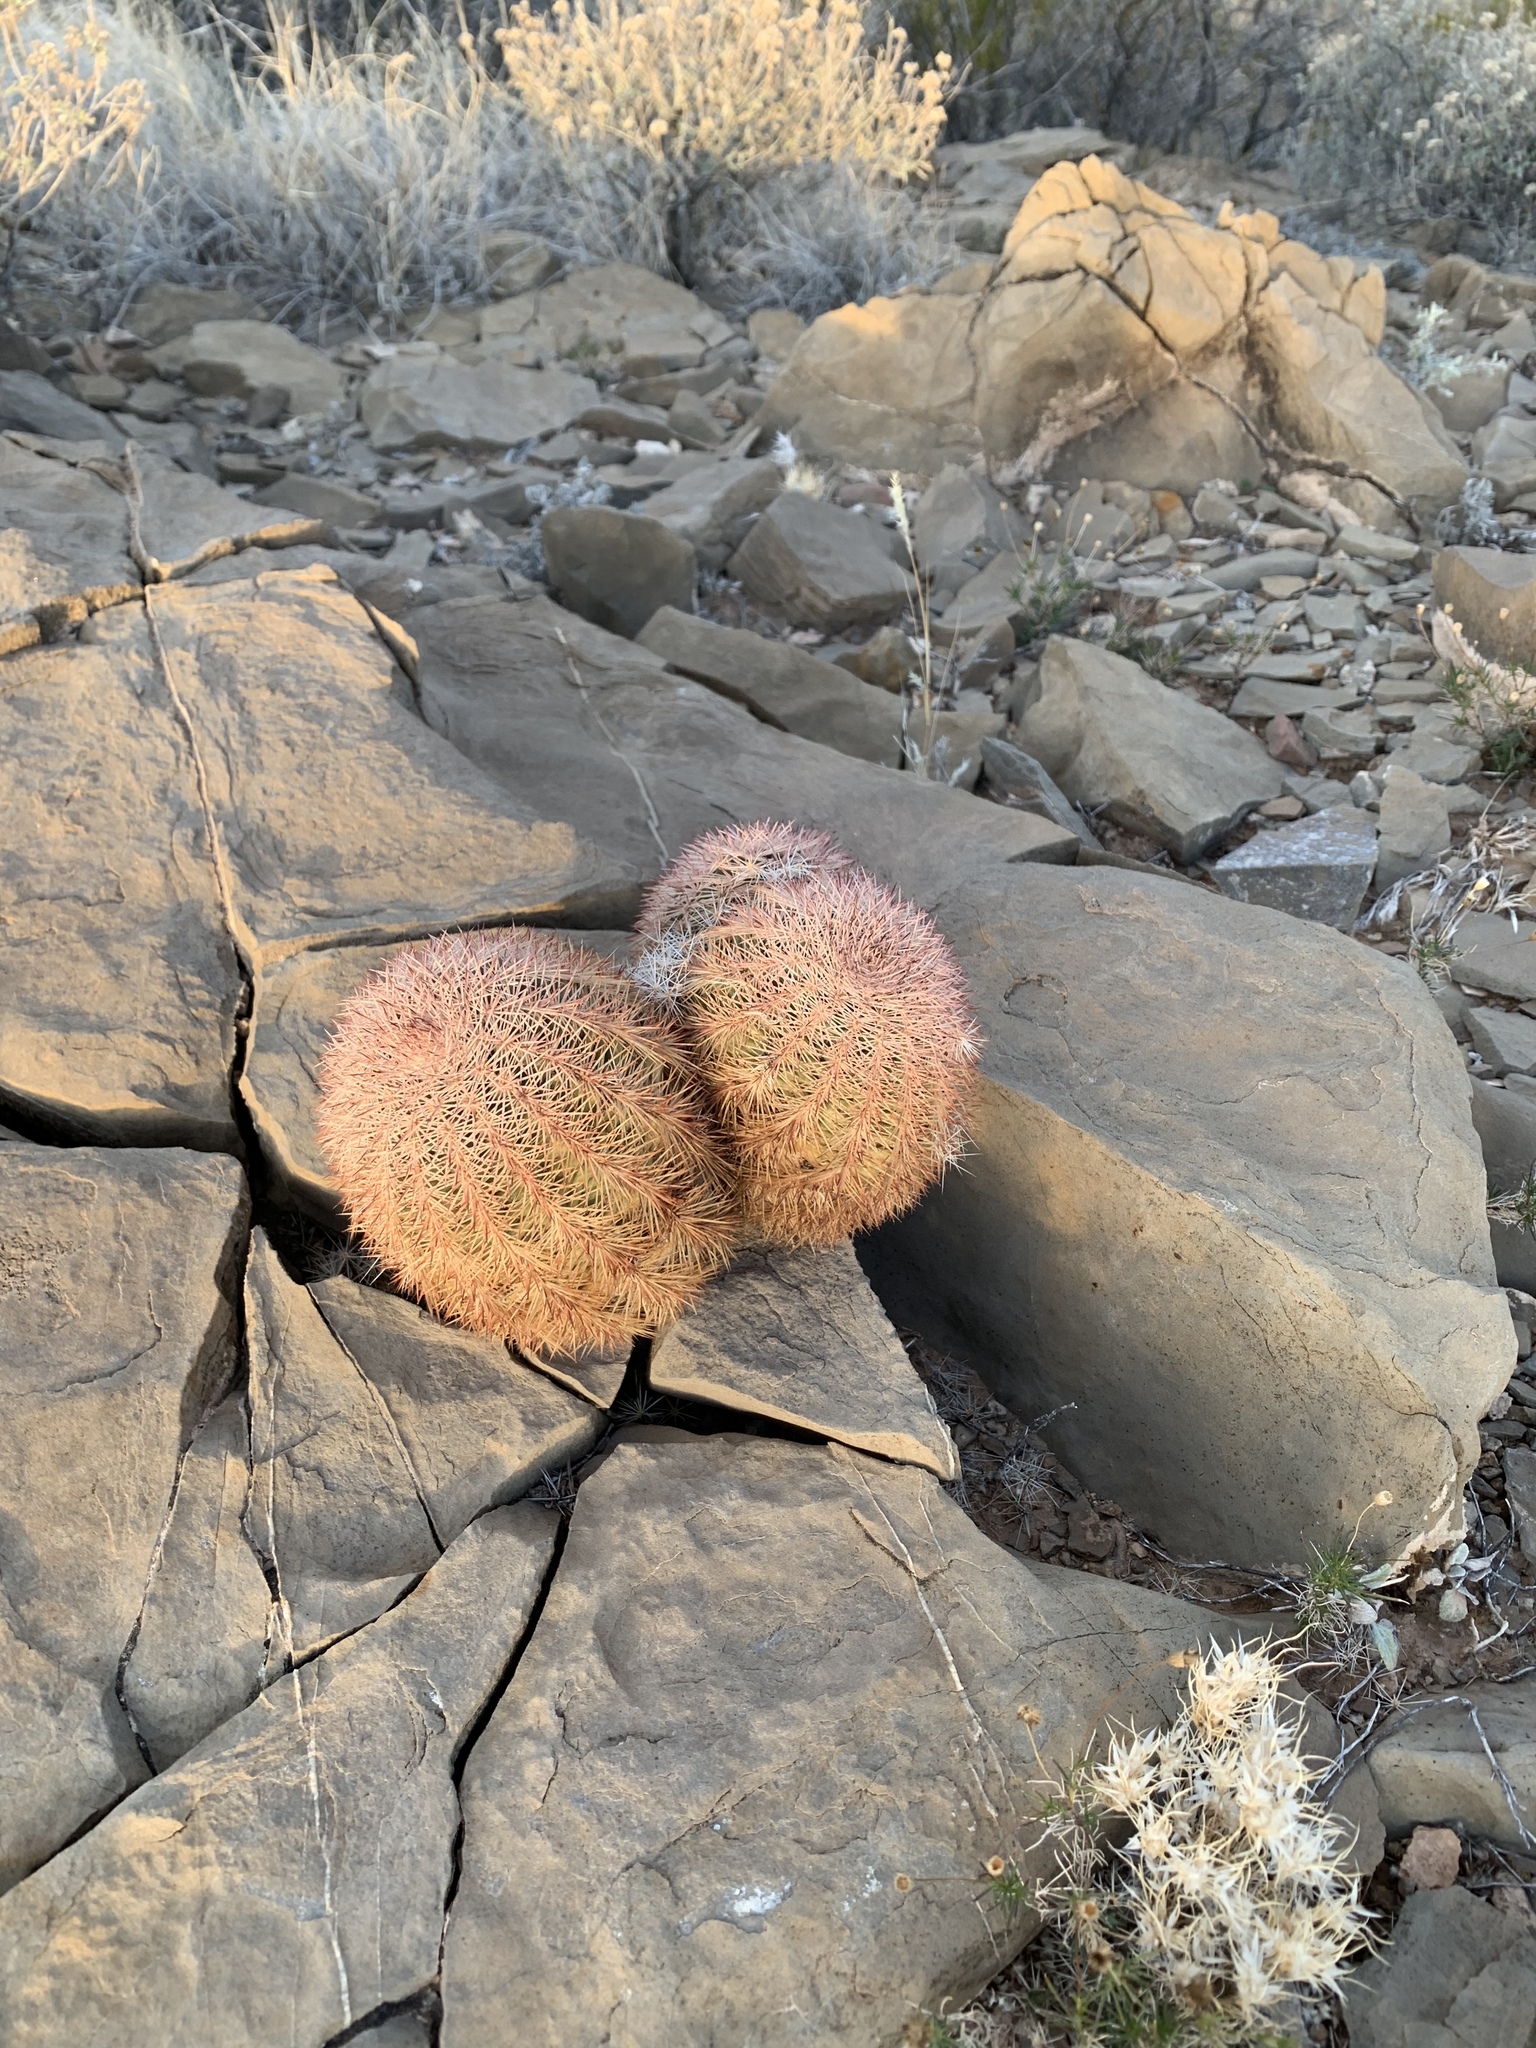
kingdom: Plantae
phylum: Tracheophyta
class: Magnoliopsida
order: Caryophyllales
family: Cactaceae
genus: Echinocereus
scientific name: Echinocereus dasyacanthus
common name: Spiny hedgehog cactus
